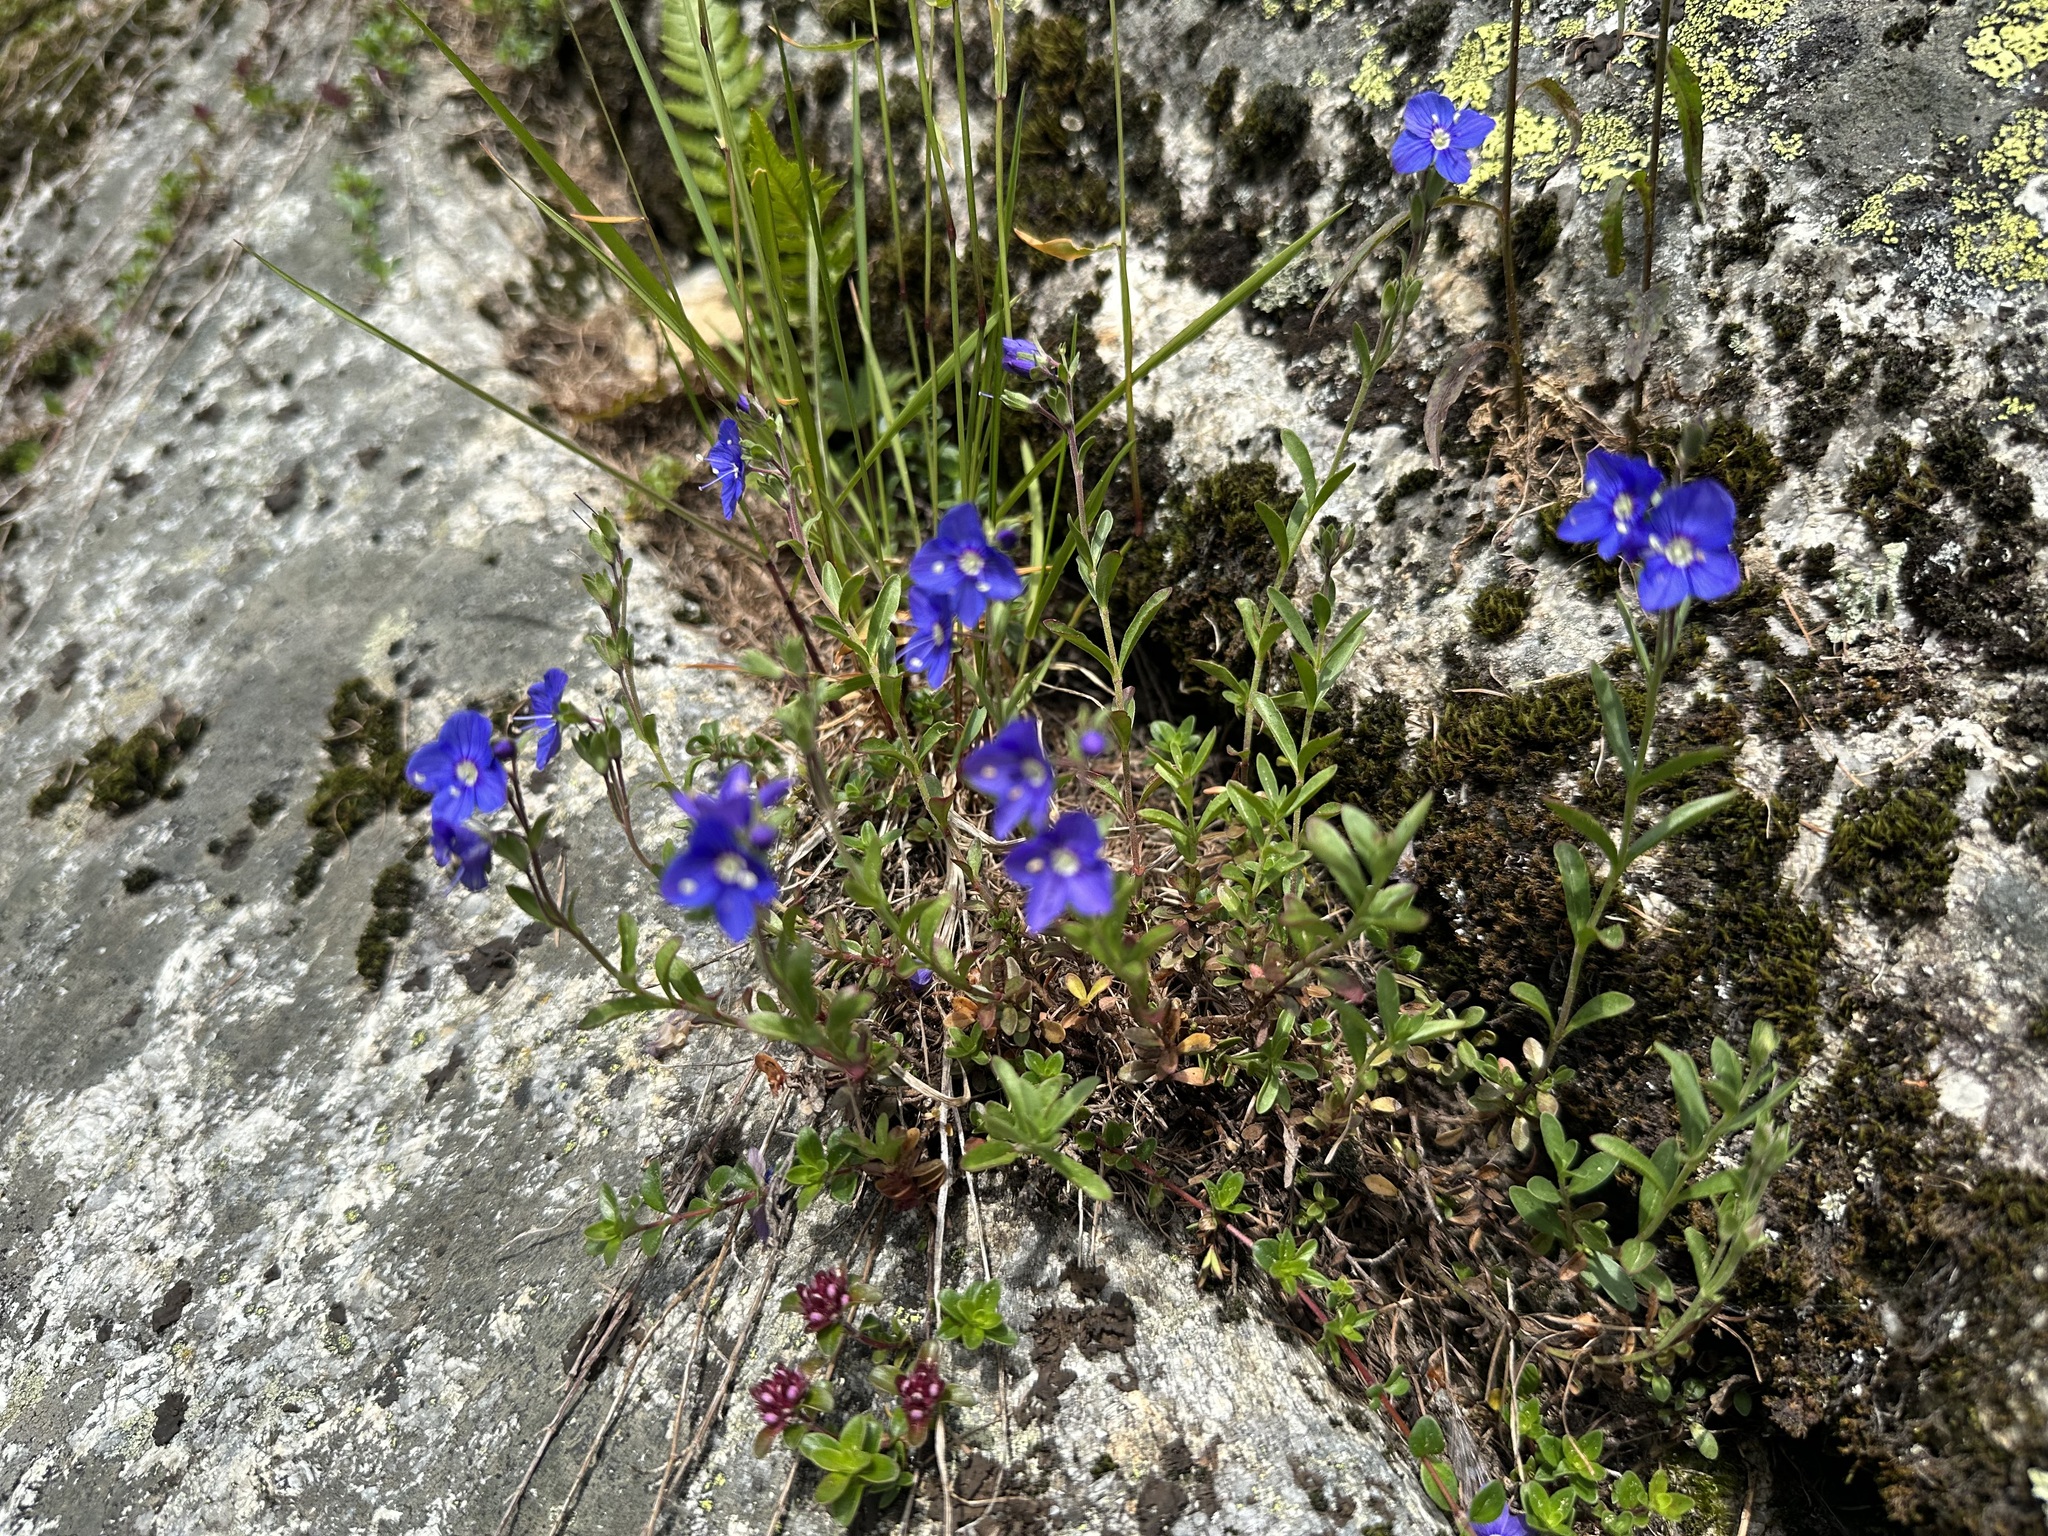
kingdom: Plantae
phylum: Tracheophyta
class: Magnoliopsida
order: Lamiales
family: Plantaginaceae
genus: Veronica
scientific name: Veronica fruticans
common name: Rock speedwell
